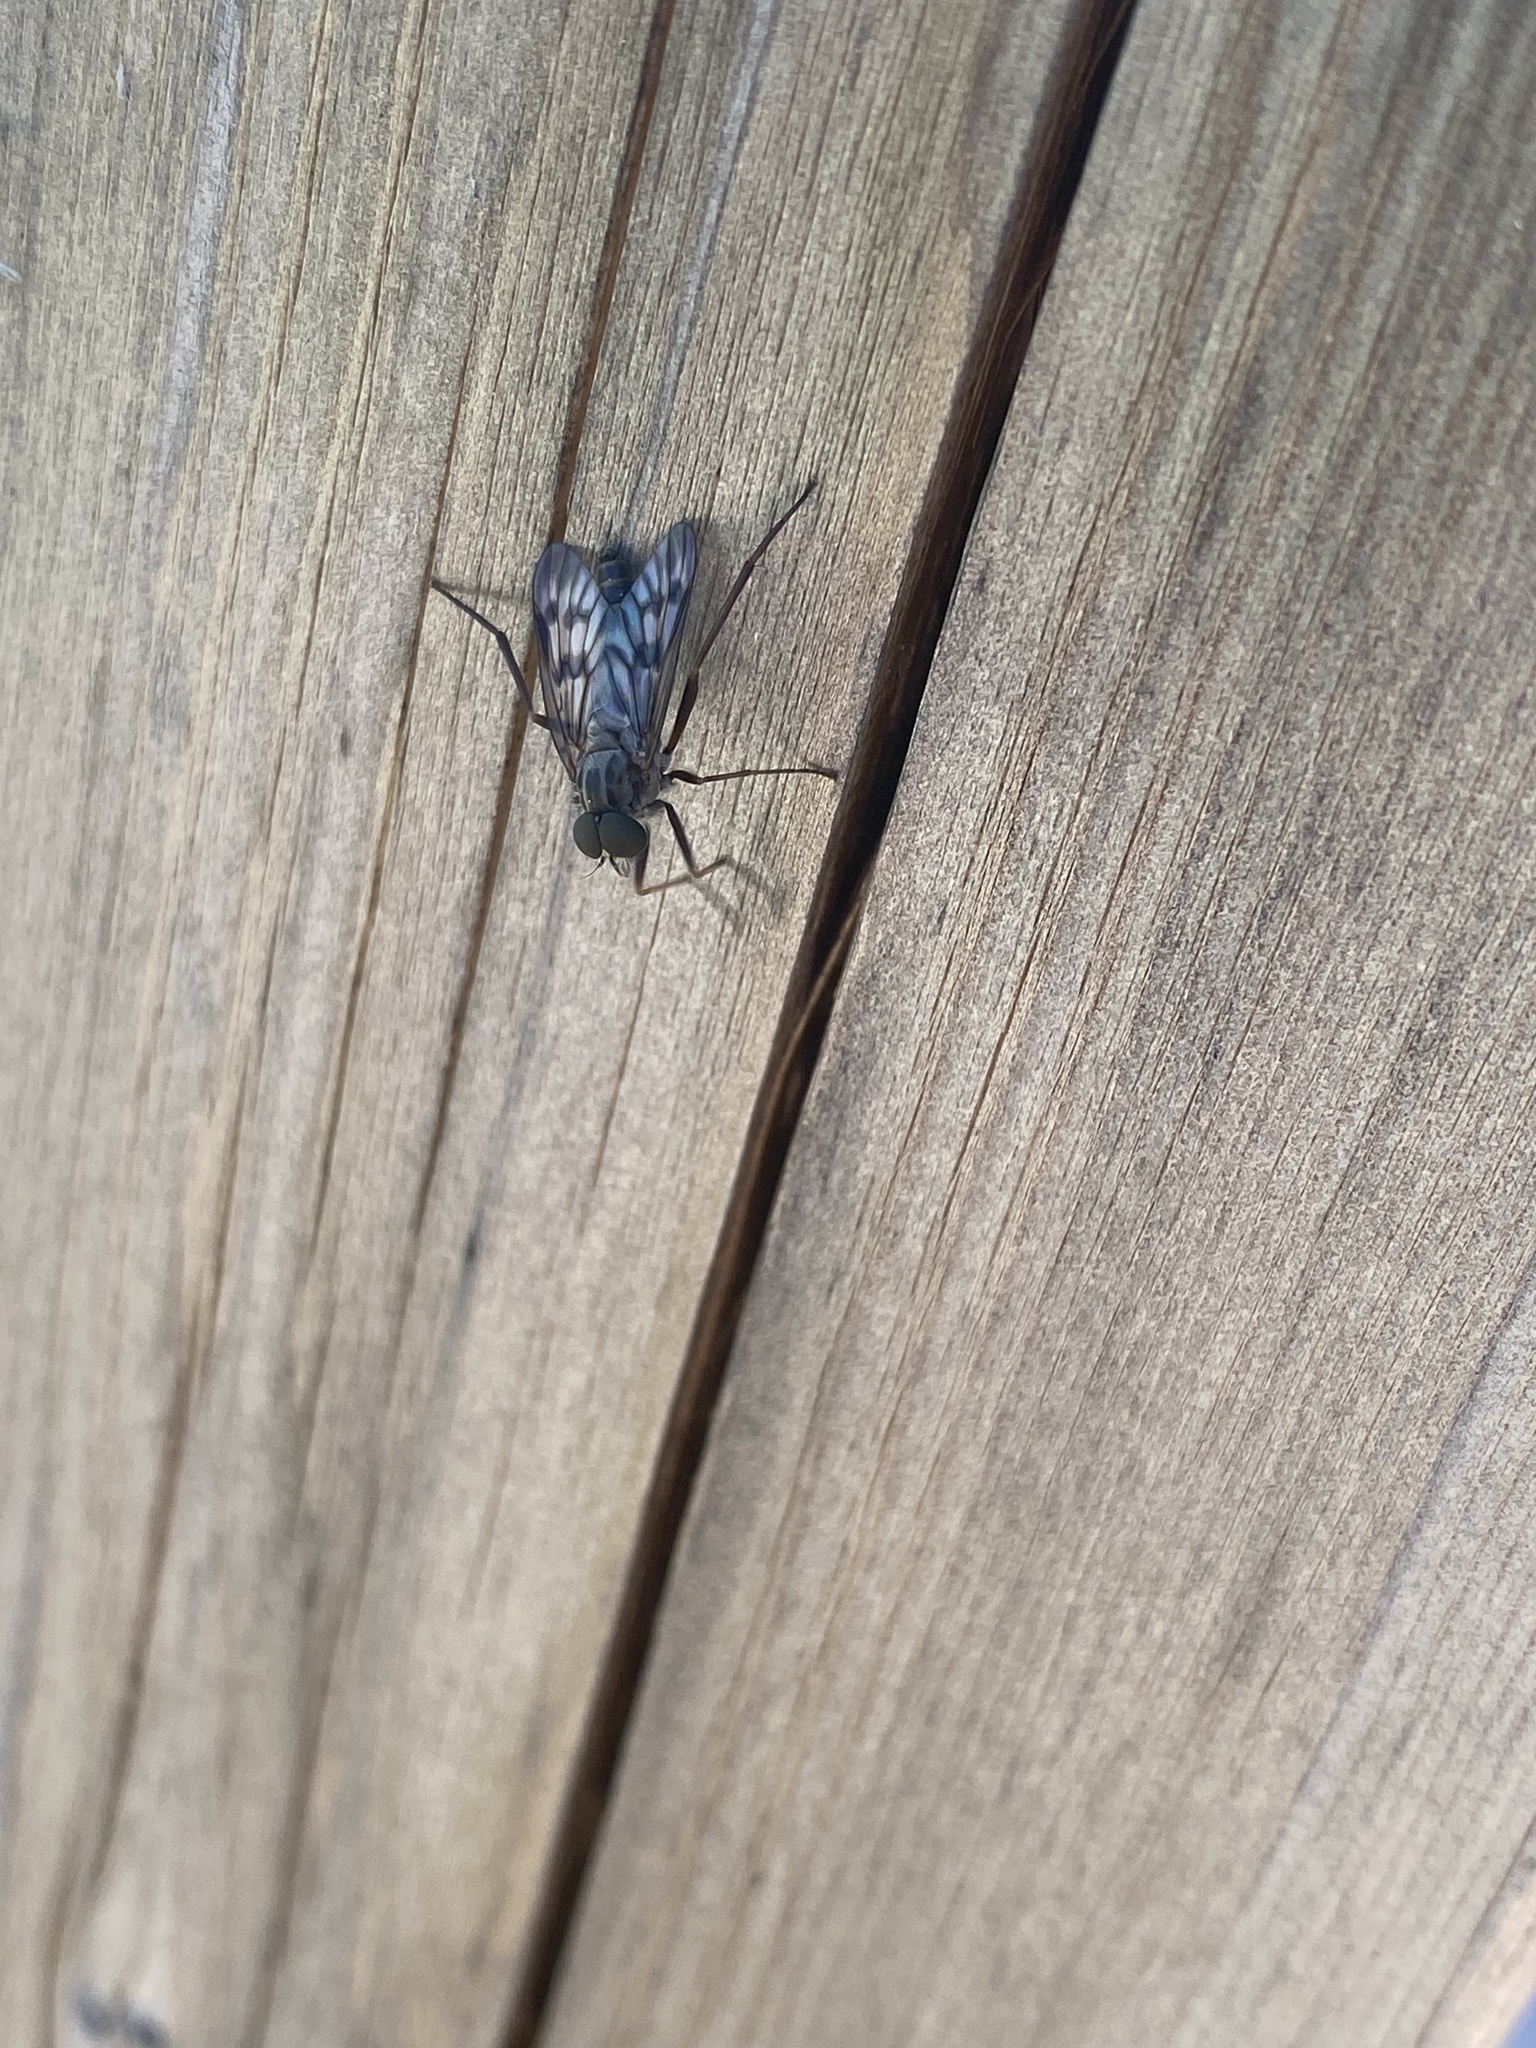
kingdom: Animalia
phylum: Arthropoda
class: Insecta
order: Diptera
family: Rhagionidae
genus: Rhagio
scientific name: Rhagio mystaceus
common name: Common snipe fly
